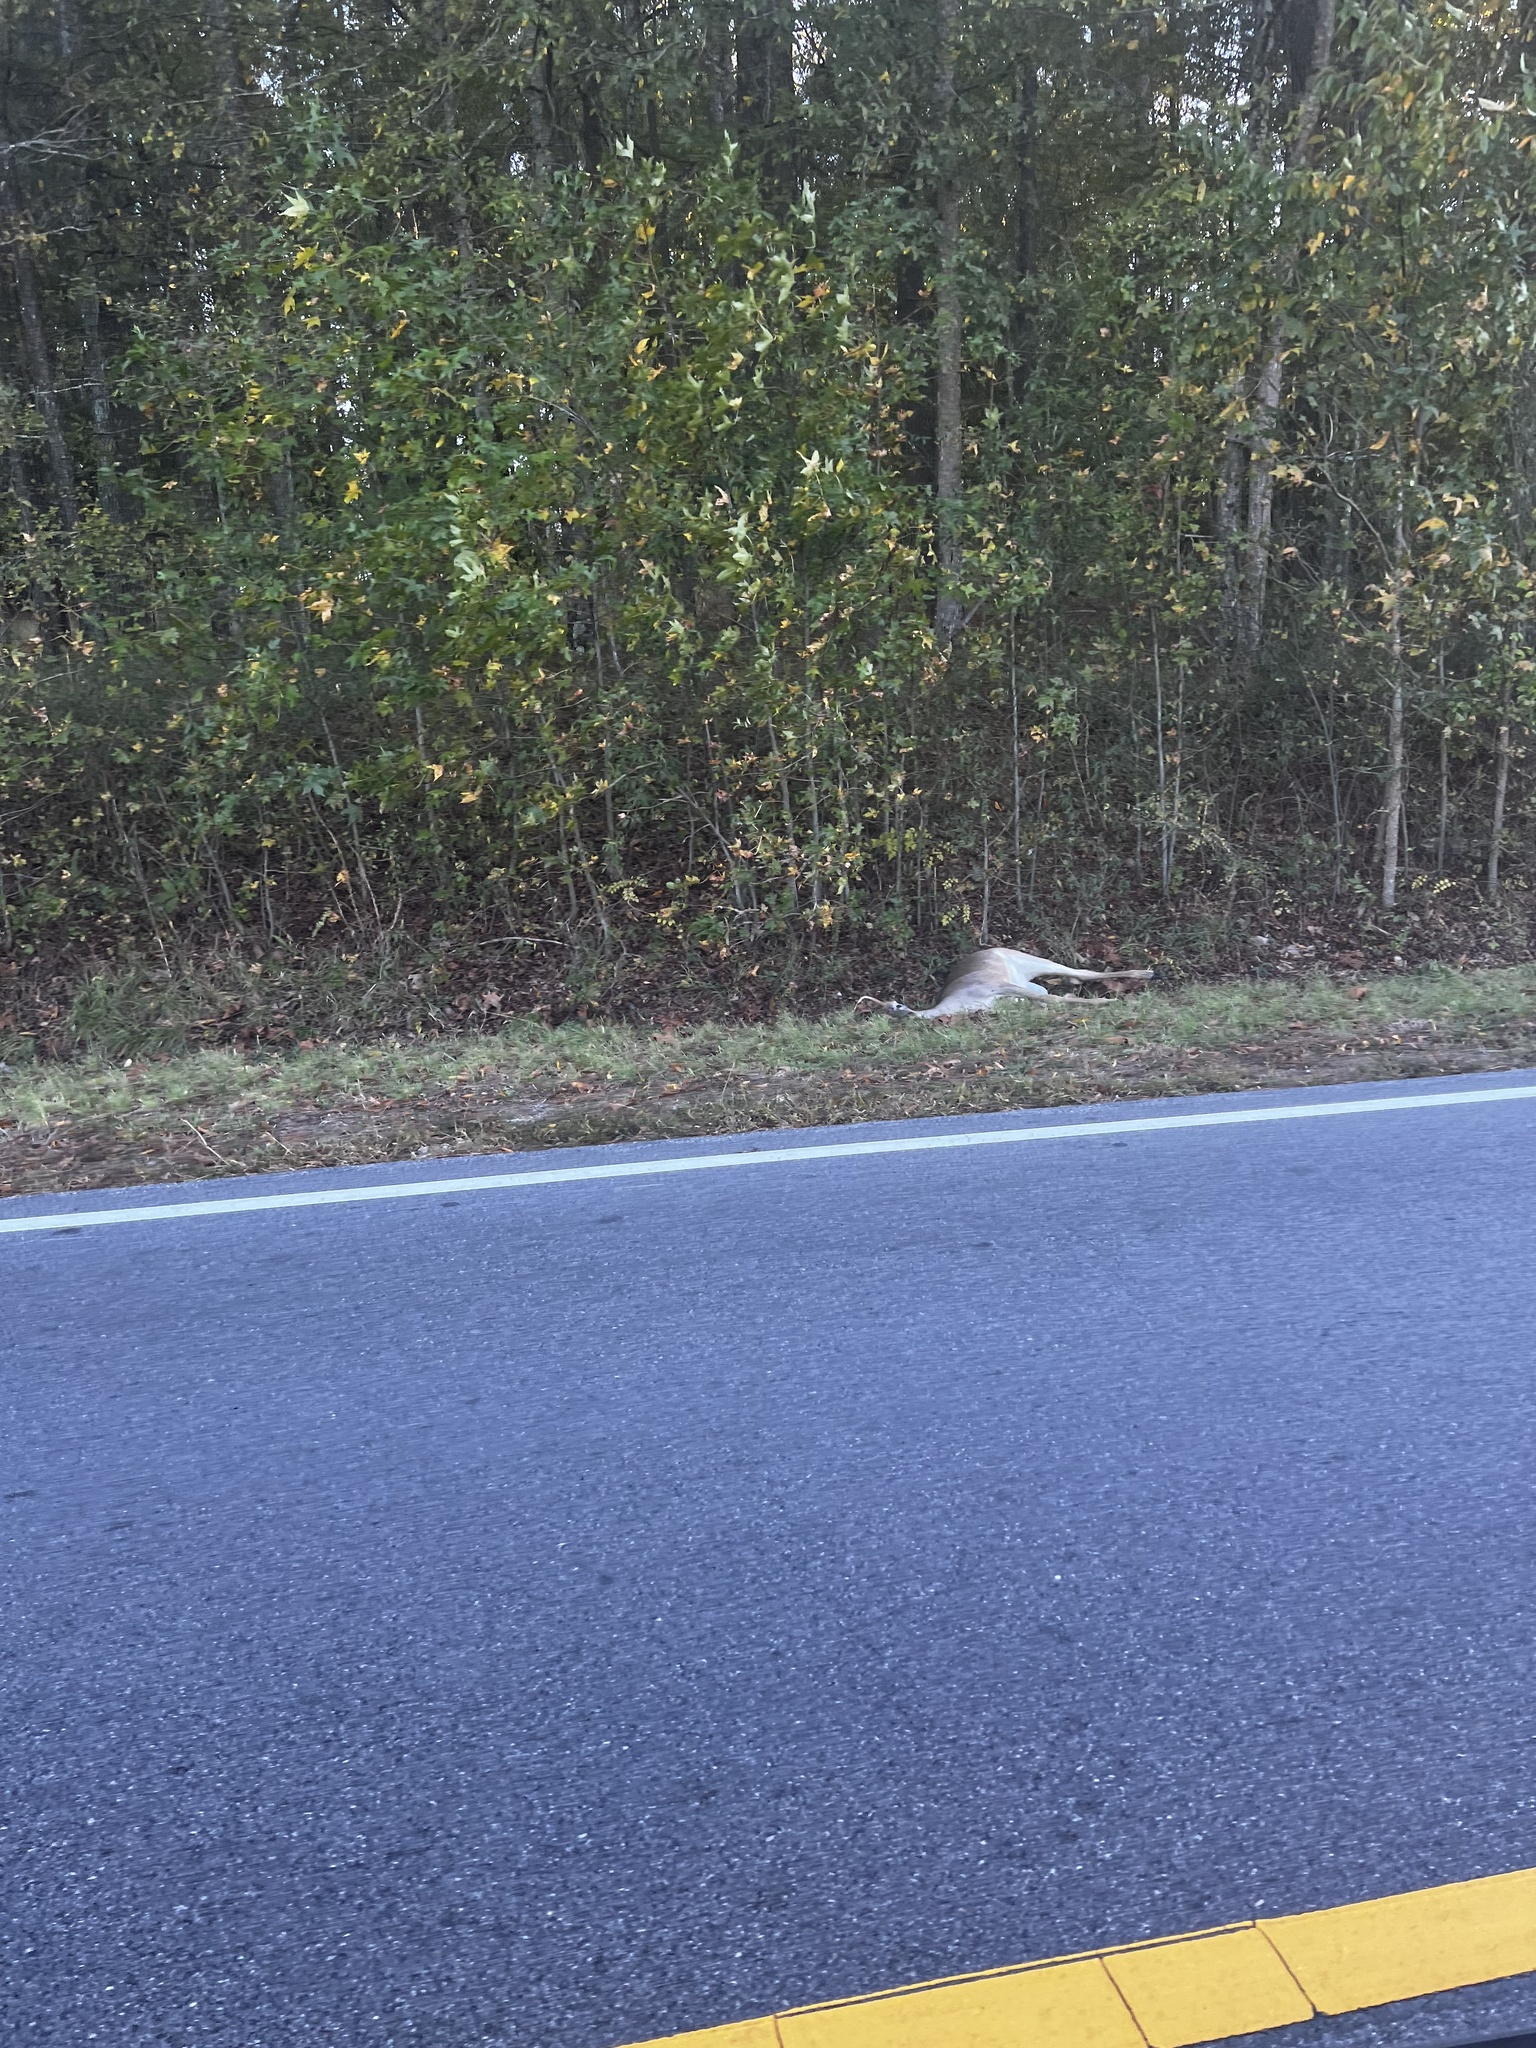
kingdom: Animalia
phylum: Chordata
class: Mammalia
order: Artiodactyla
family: Cervidae
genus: Odocoileus
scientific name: Odocoileus virginianus
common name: White-tailed deer
